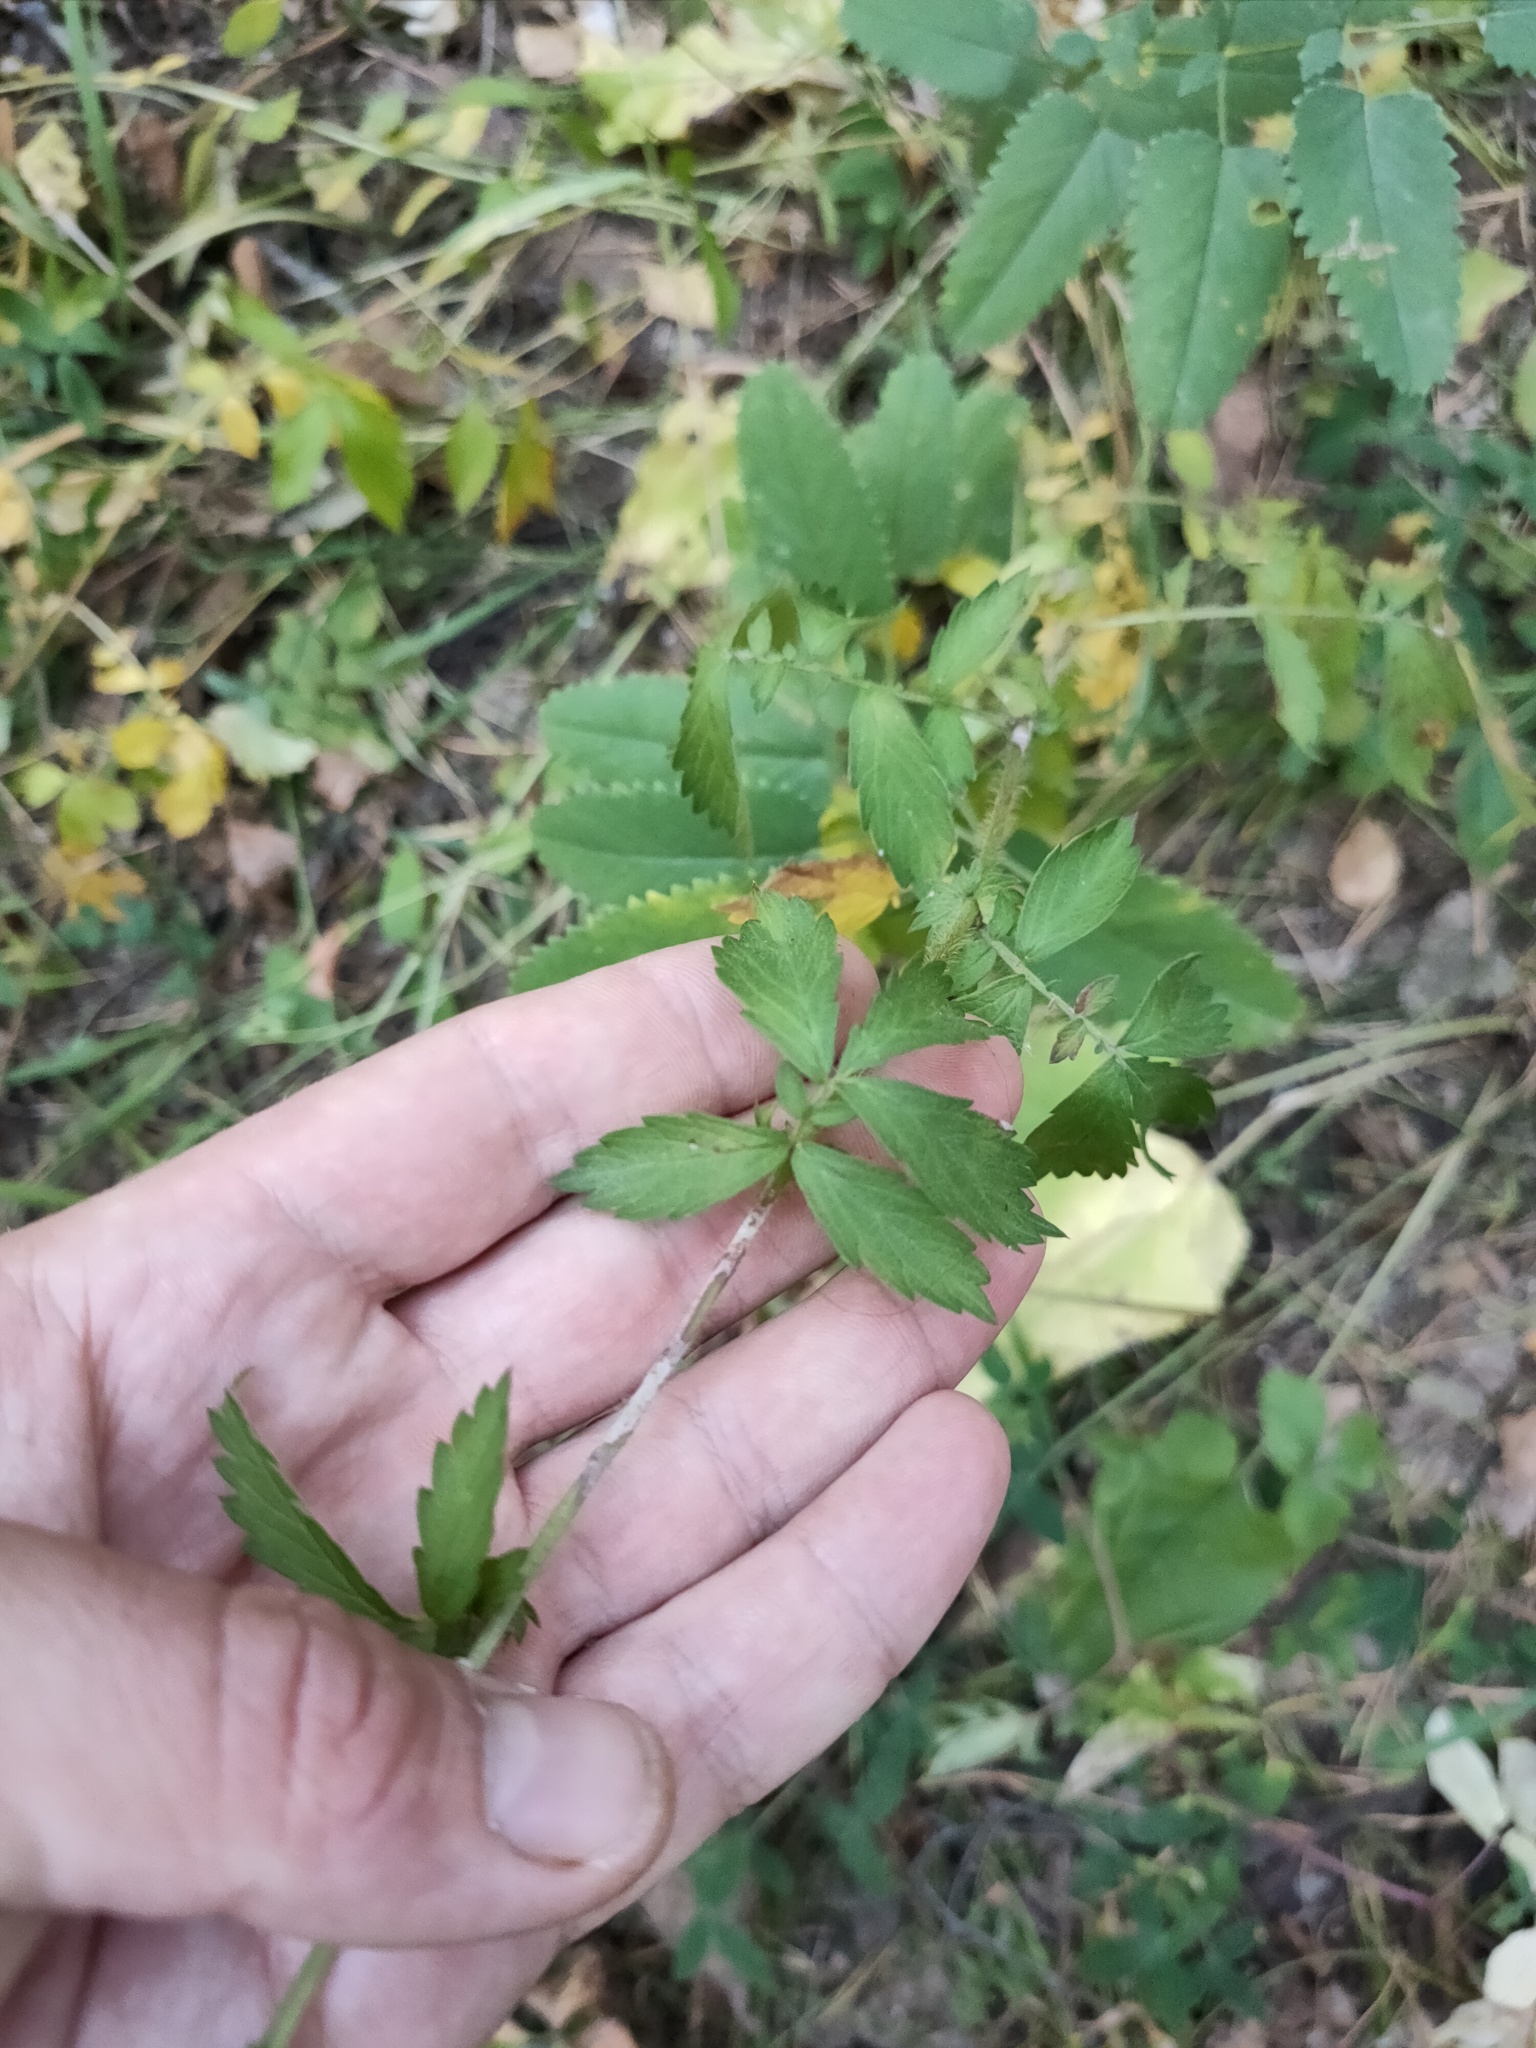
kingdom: Plantae
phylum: Tracheophyta
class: Magnoliopsida
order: Rosales
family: Rosaceae
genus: Agrimonia
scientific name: Agrimonia pilosa
